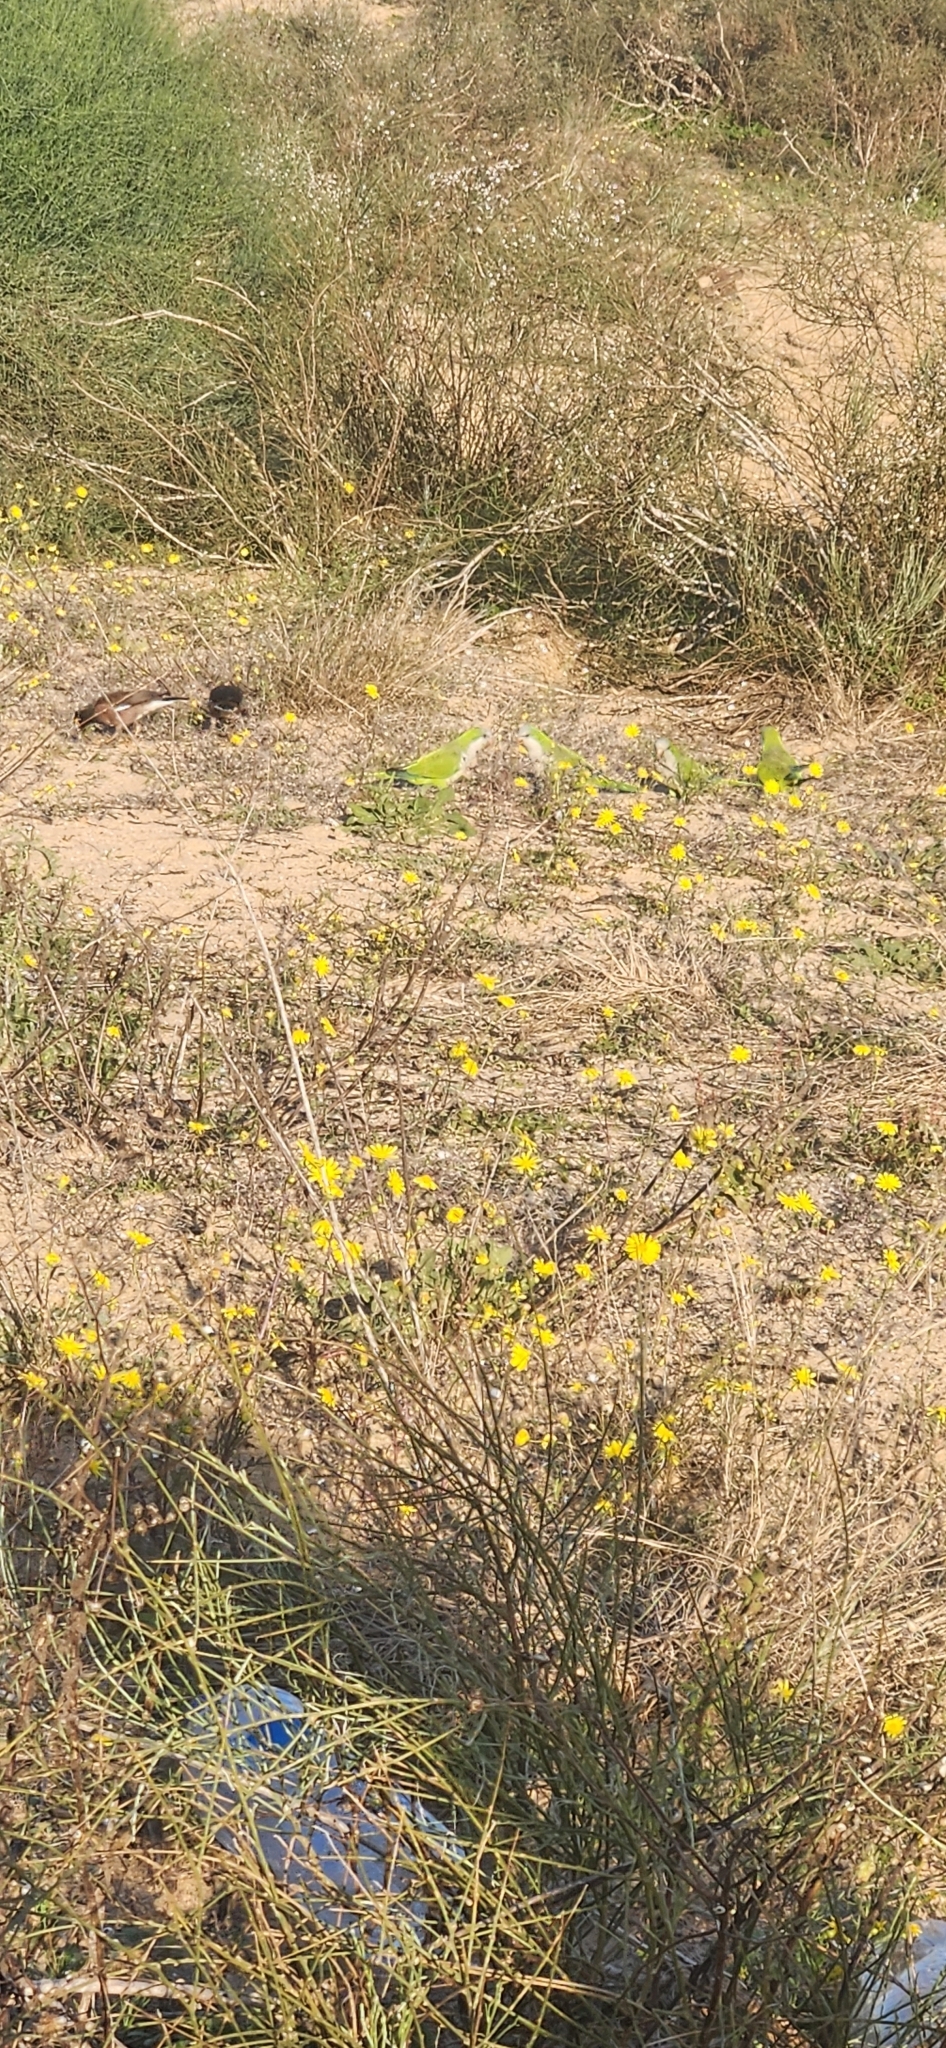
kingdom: Animalia
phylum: Chordata
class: Aves
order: Psittaciformes
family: Psittacidae
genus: Myiopsitta
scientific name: Myiopsitta monachus
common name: Monk parakeet
